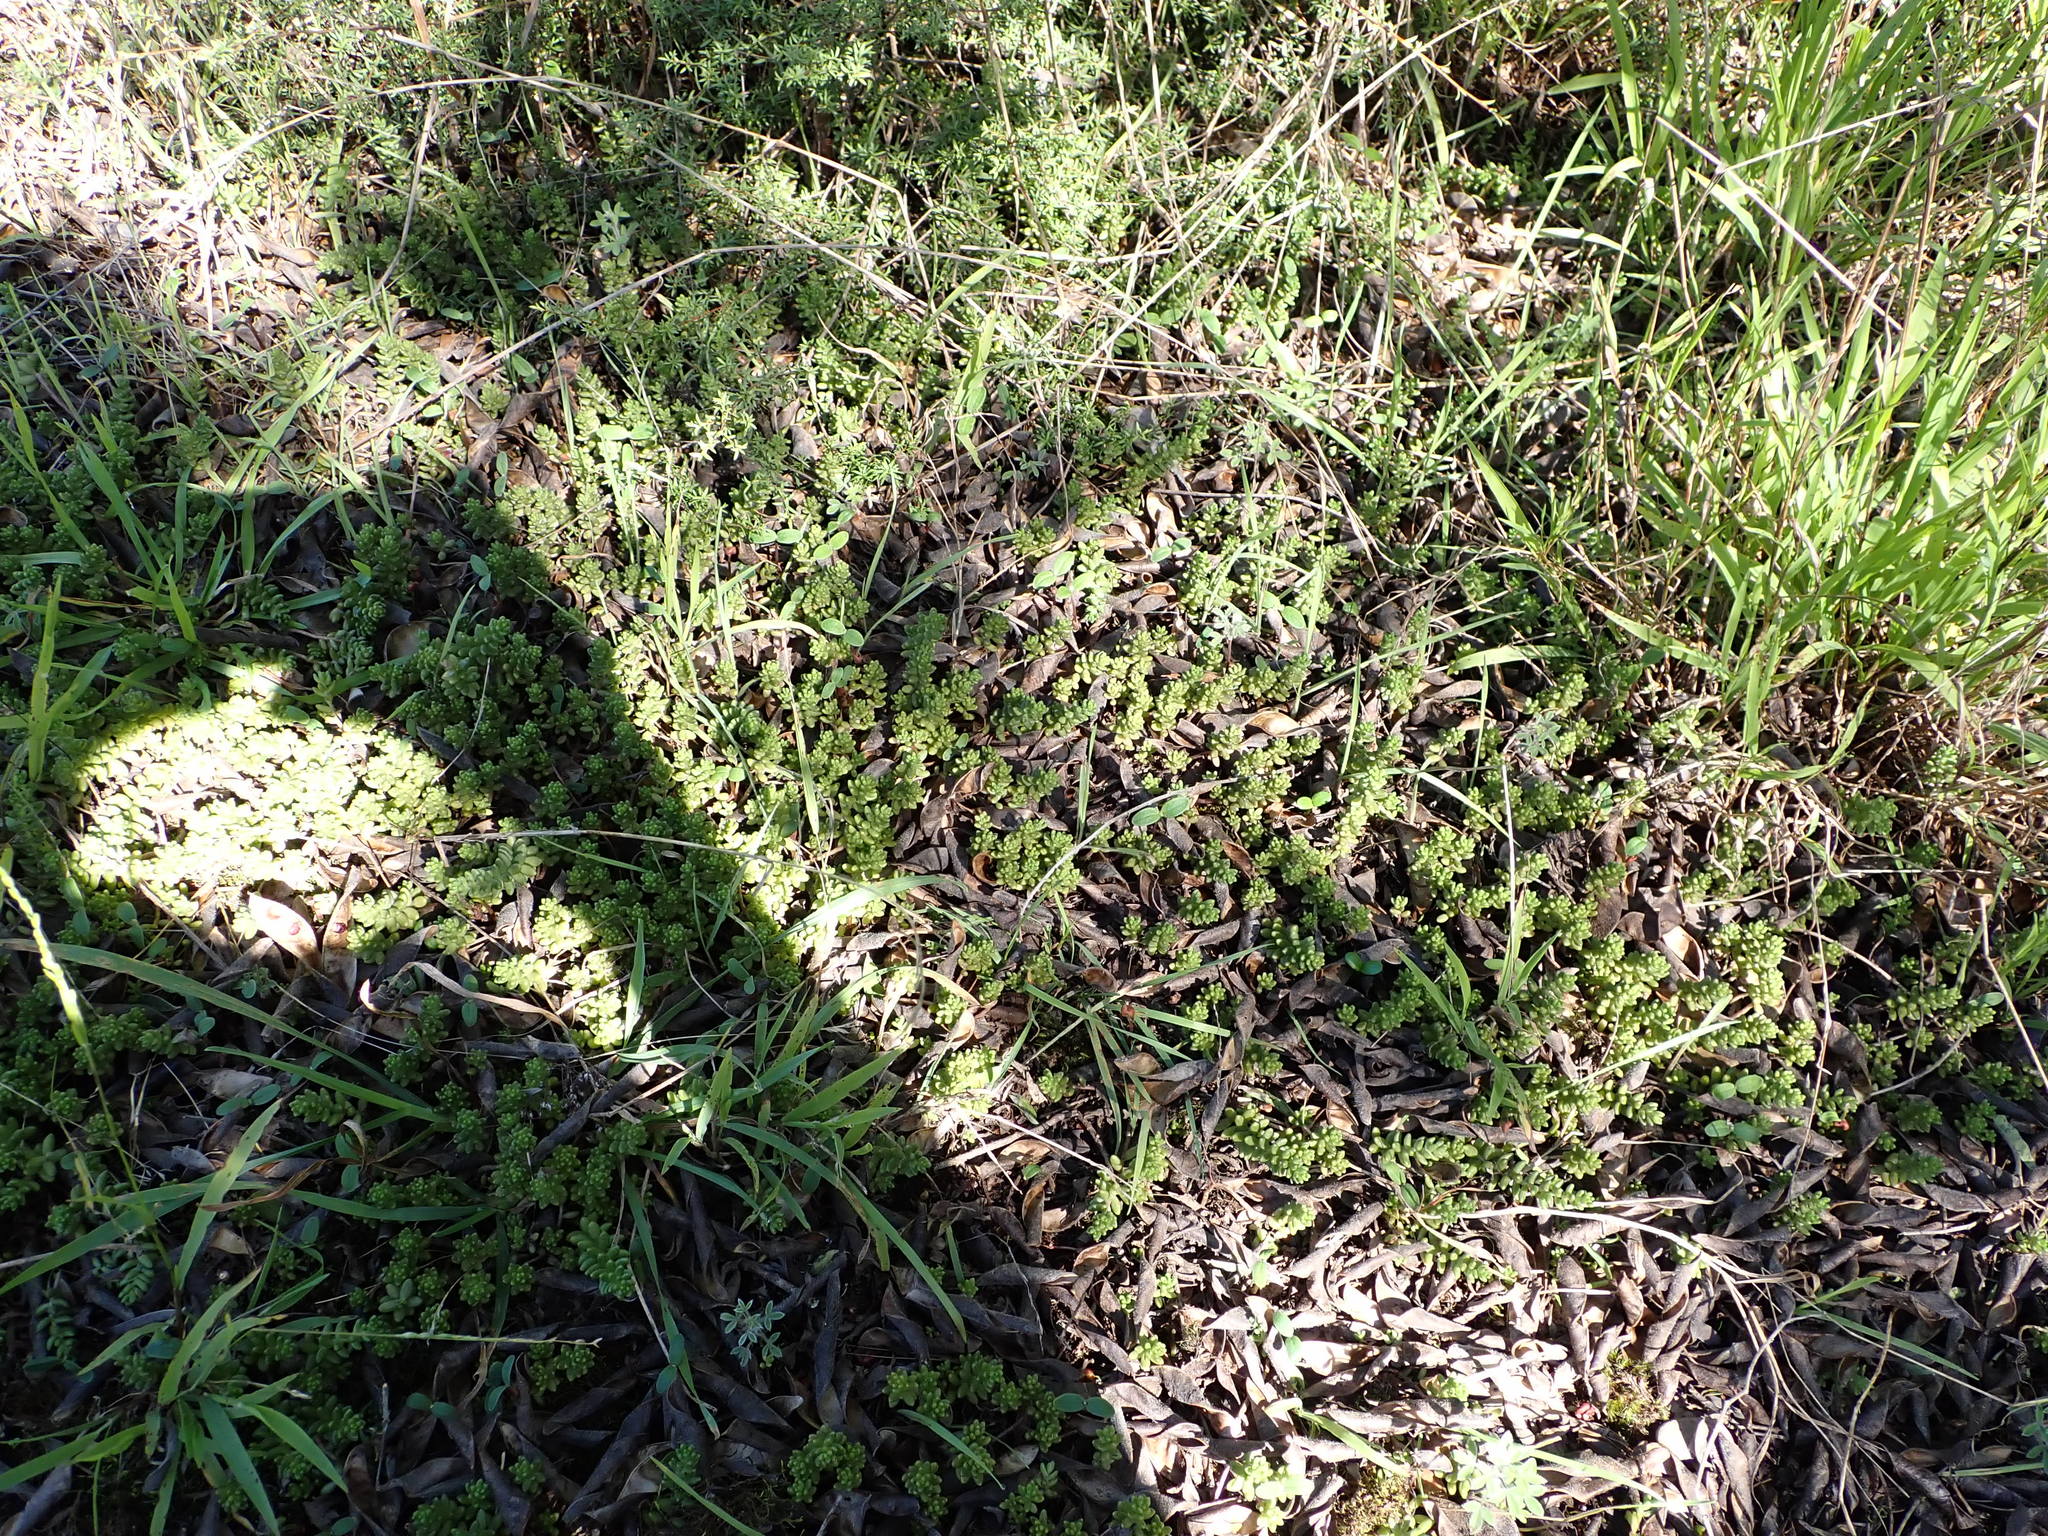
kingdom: Plantae
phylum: Tracheophyta
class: Magnoliopsida
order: Saxifragales
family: Crassulaceae
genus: Sedum
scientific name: Sedum album
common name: White stonecrop
